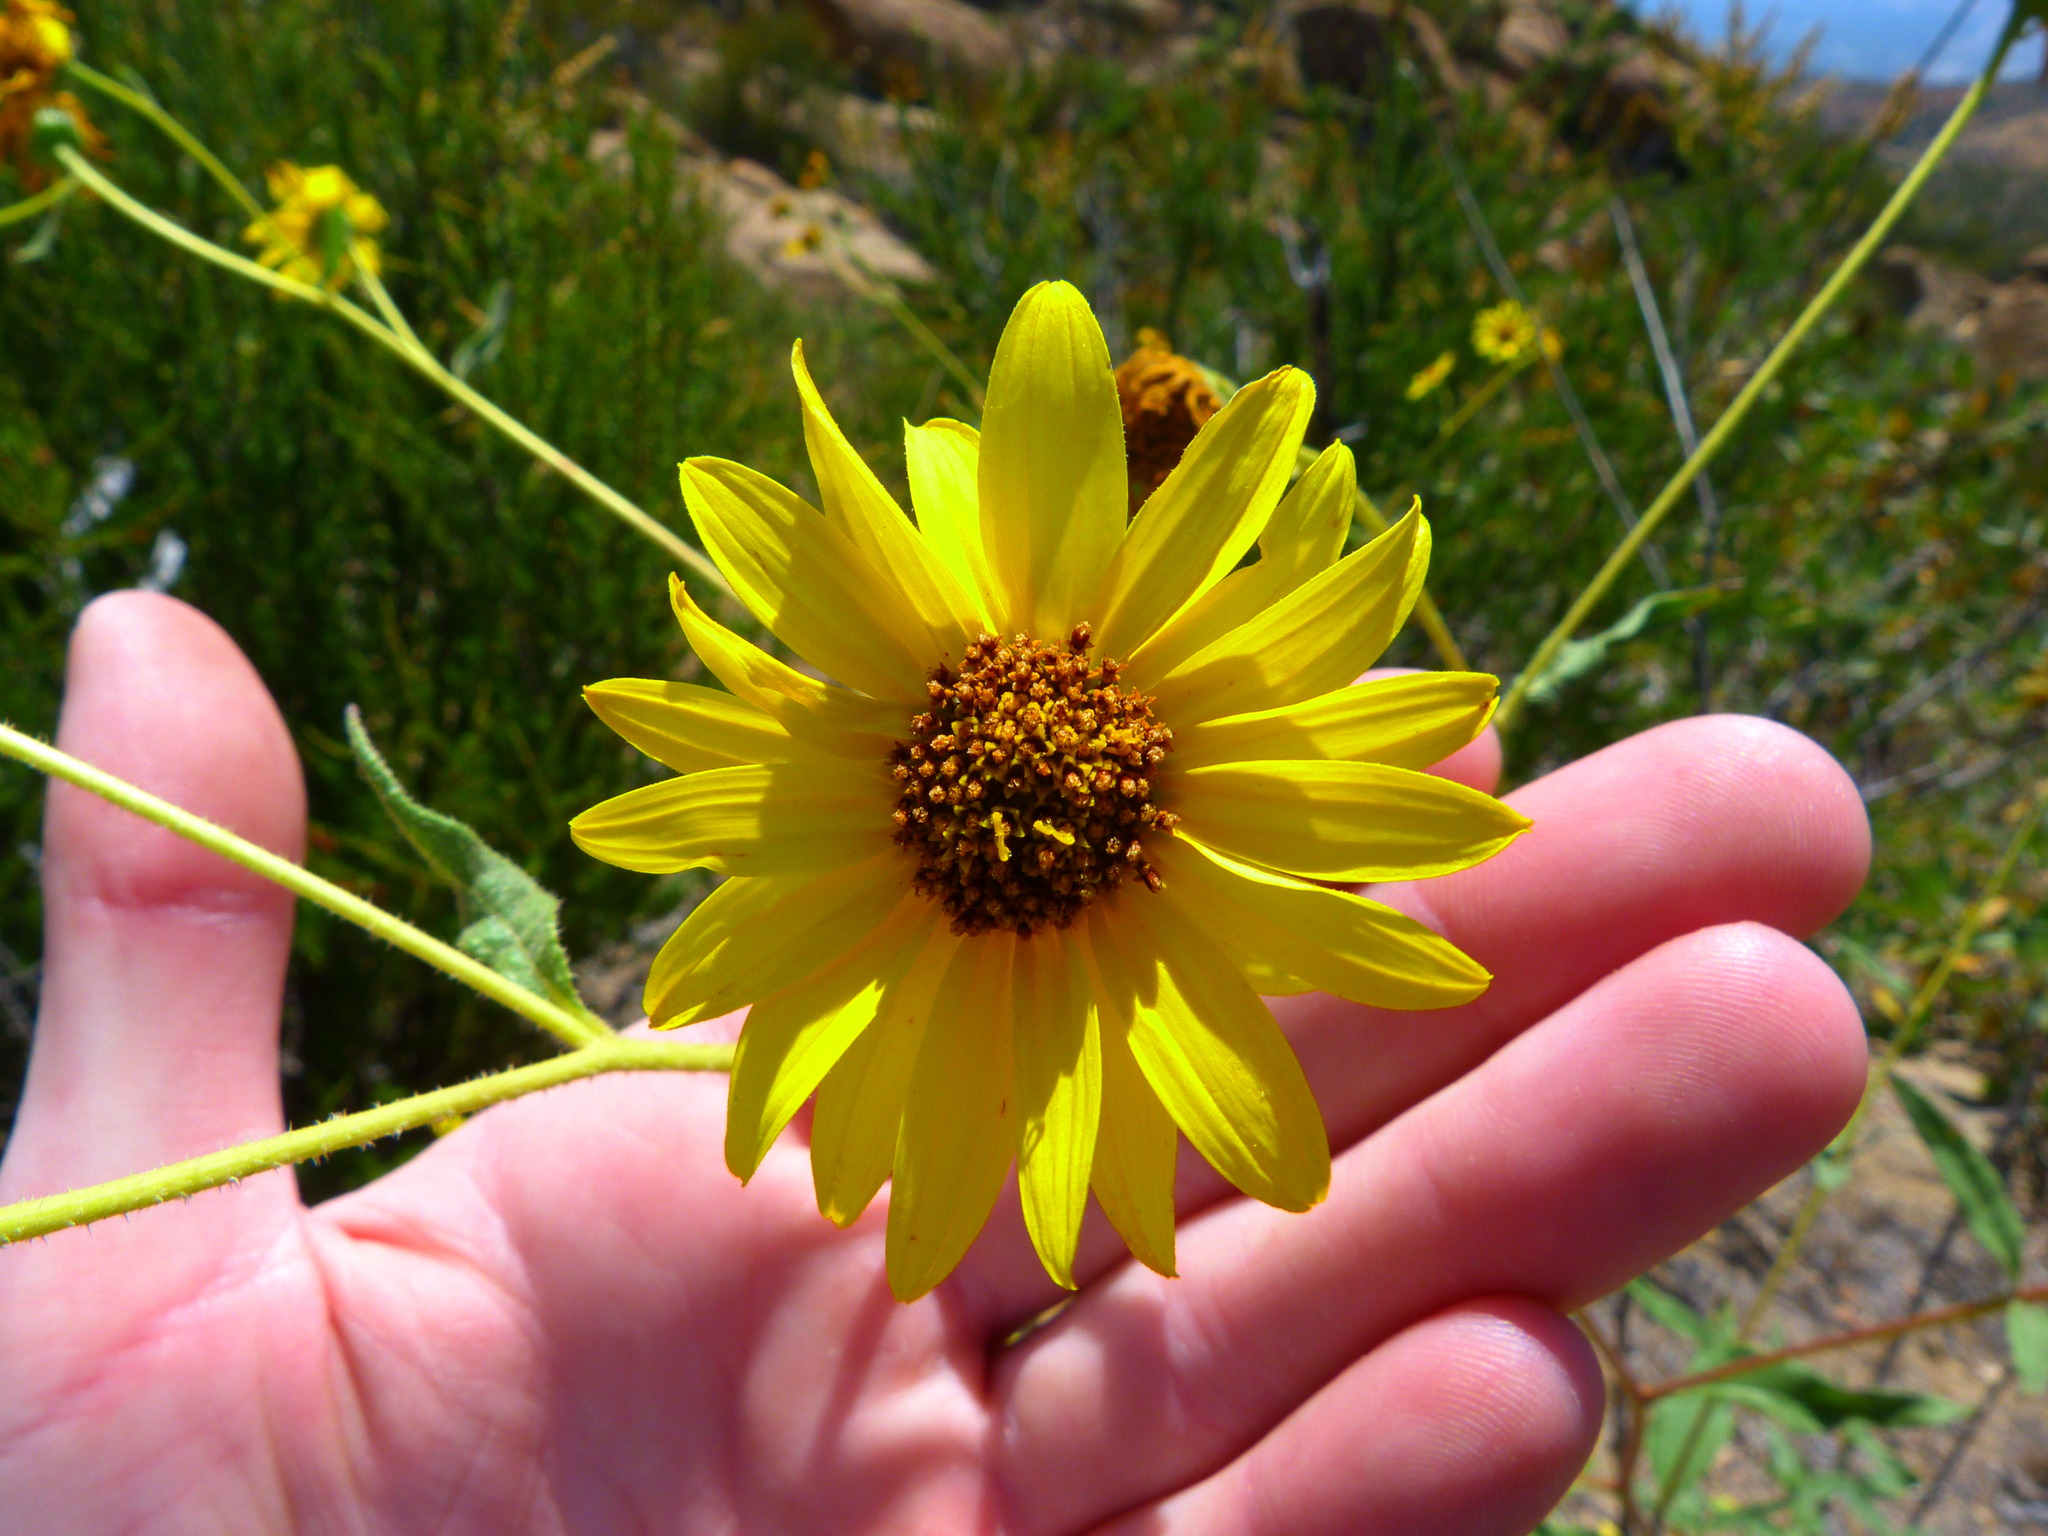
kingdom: Plantae
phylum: Tracheophyta
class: Magnoliopsida
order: Asterales
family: Asteraceae
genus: Helianthus
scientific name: Helianthus gracilentus
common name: Slender sunflower
